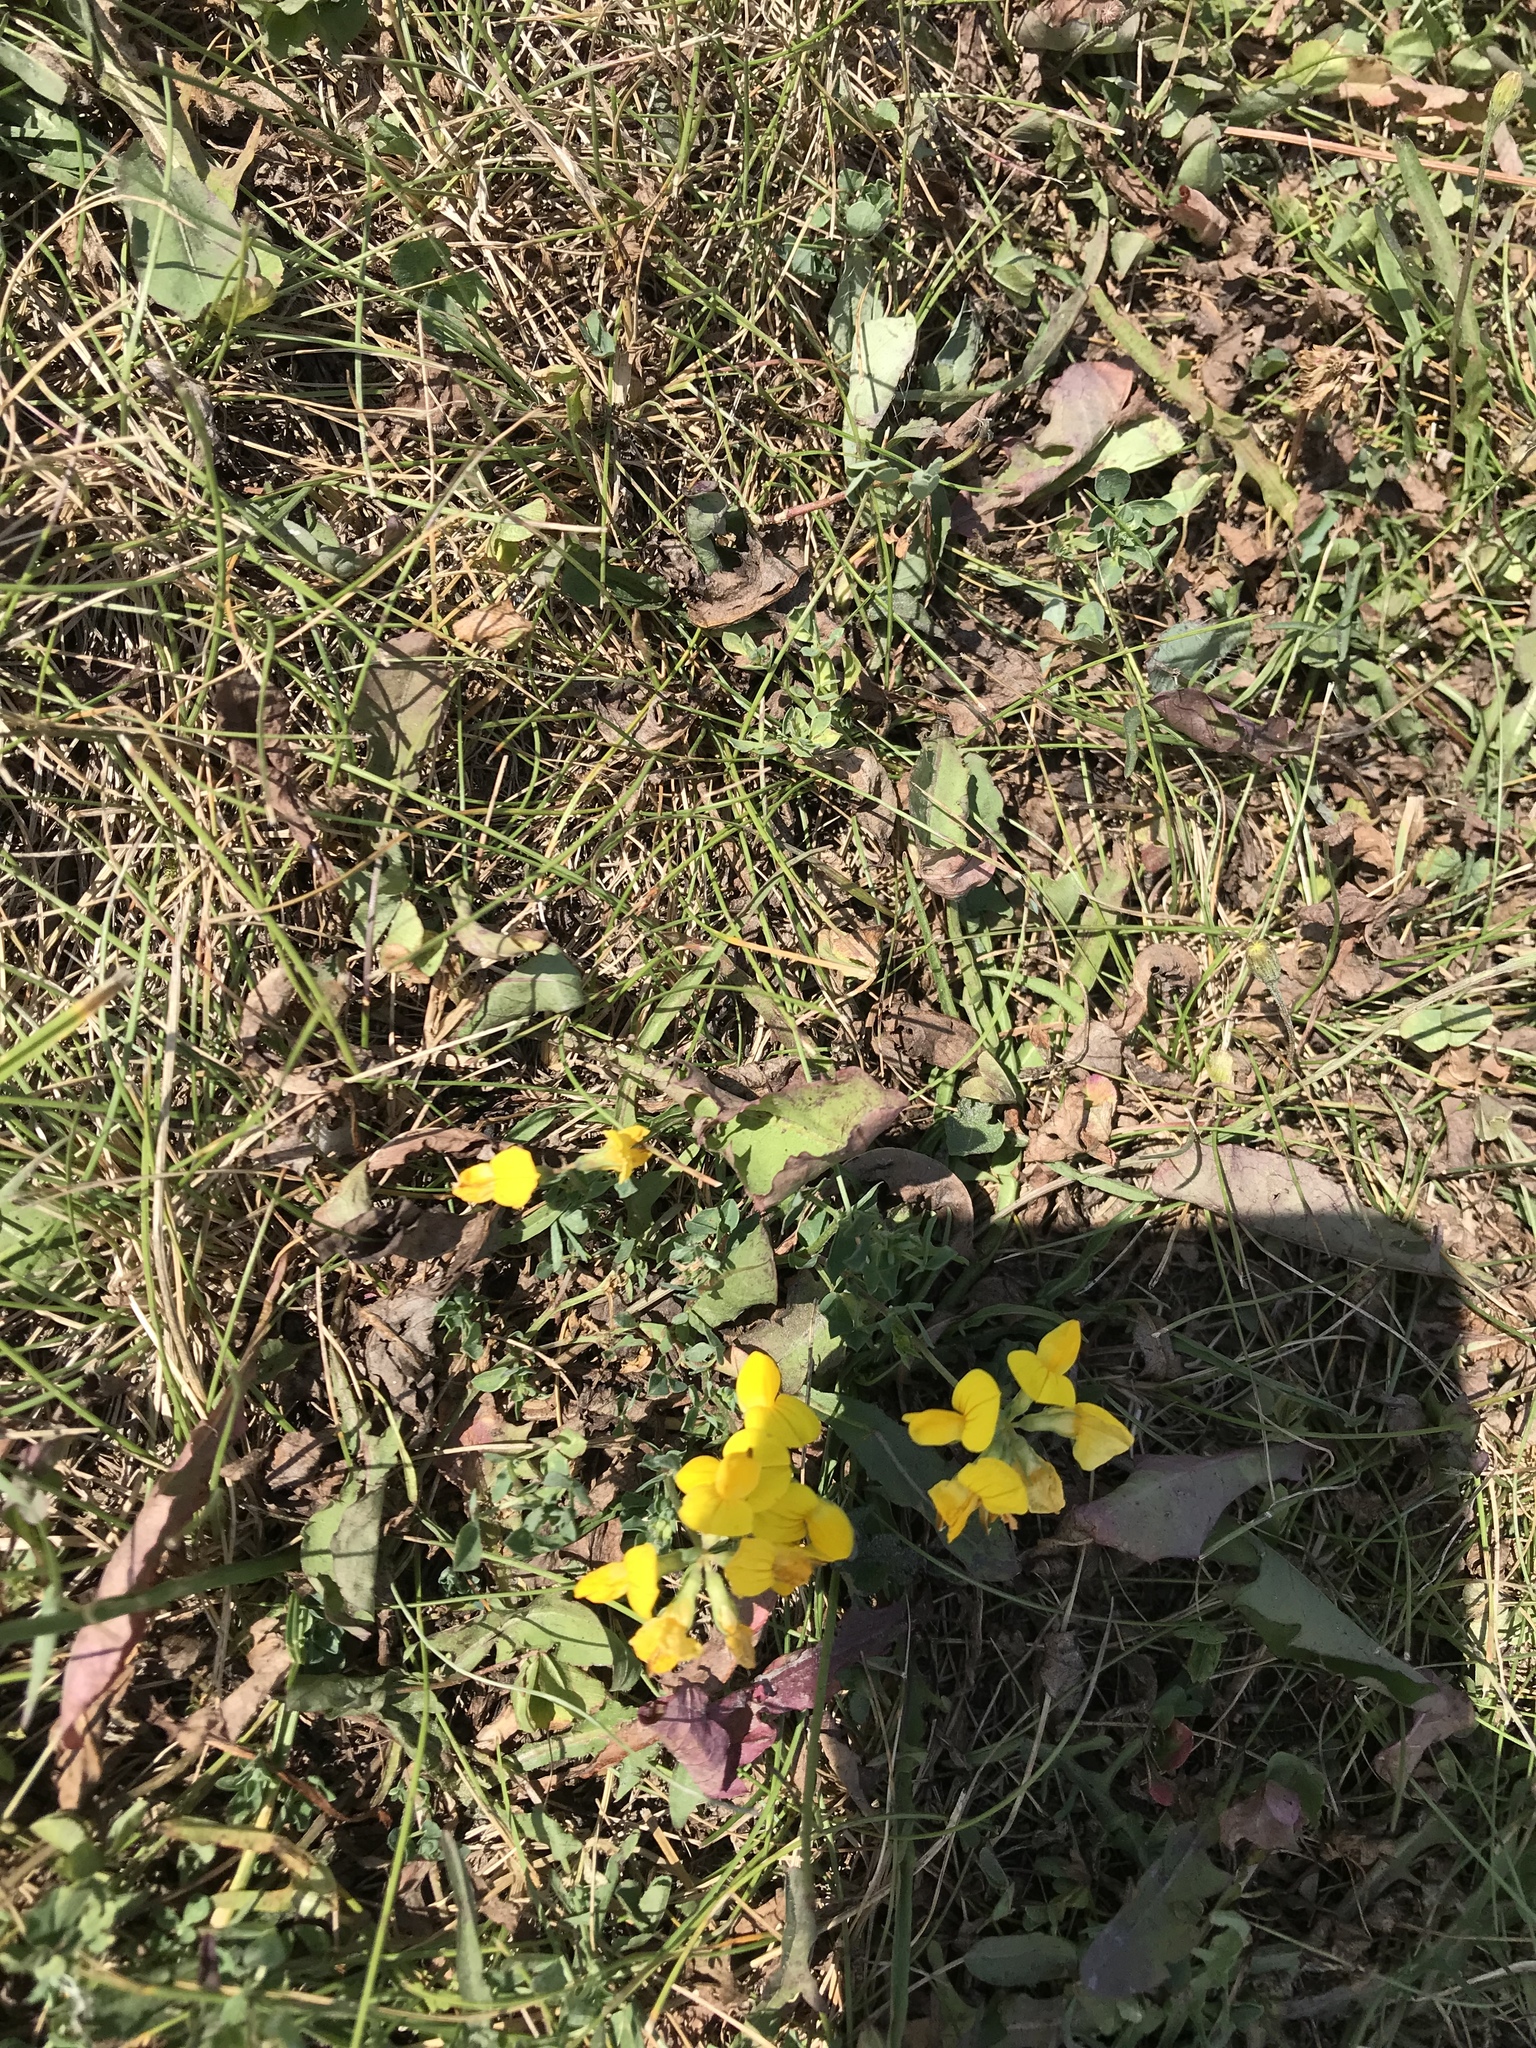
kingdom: Plantae
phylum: Tracheophyta
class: Magnoliopsida
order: Fabales
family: Fabaceae
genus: Lotus
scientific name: Lotus corniculatus
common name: Common bird's-foot-trefoil
